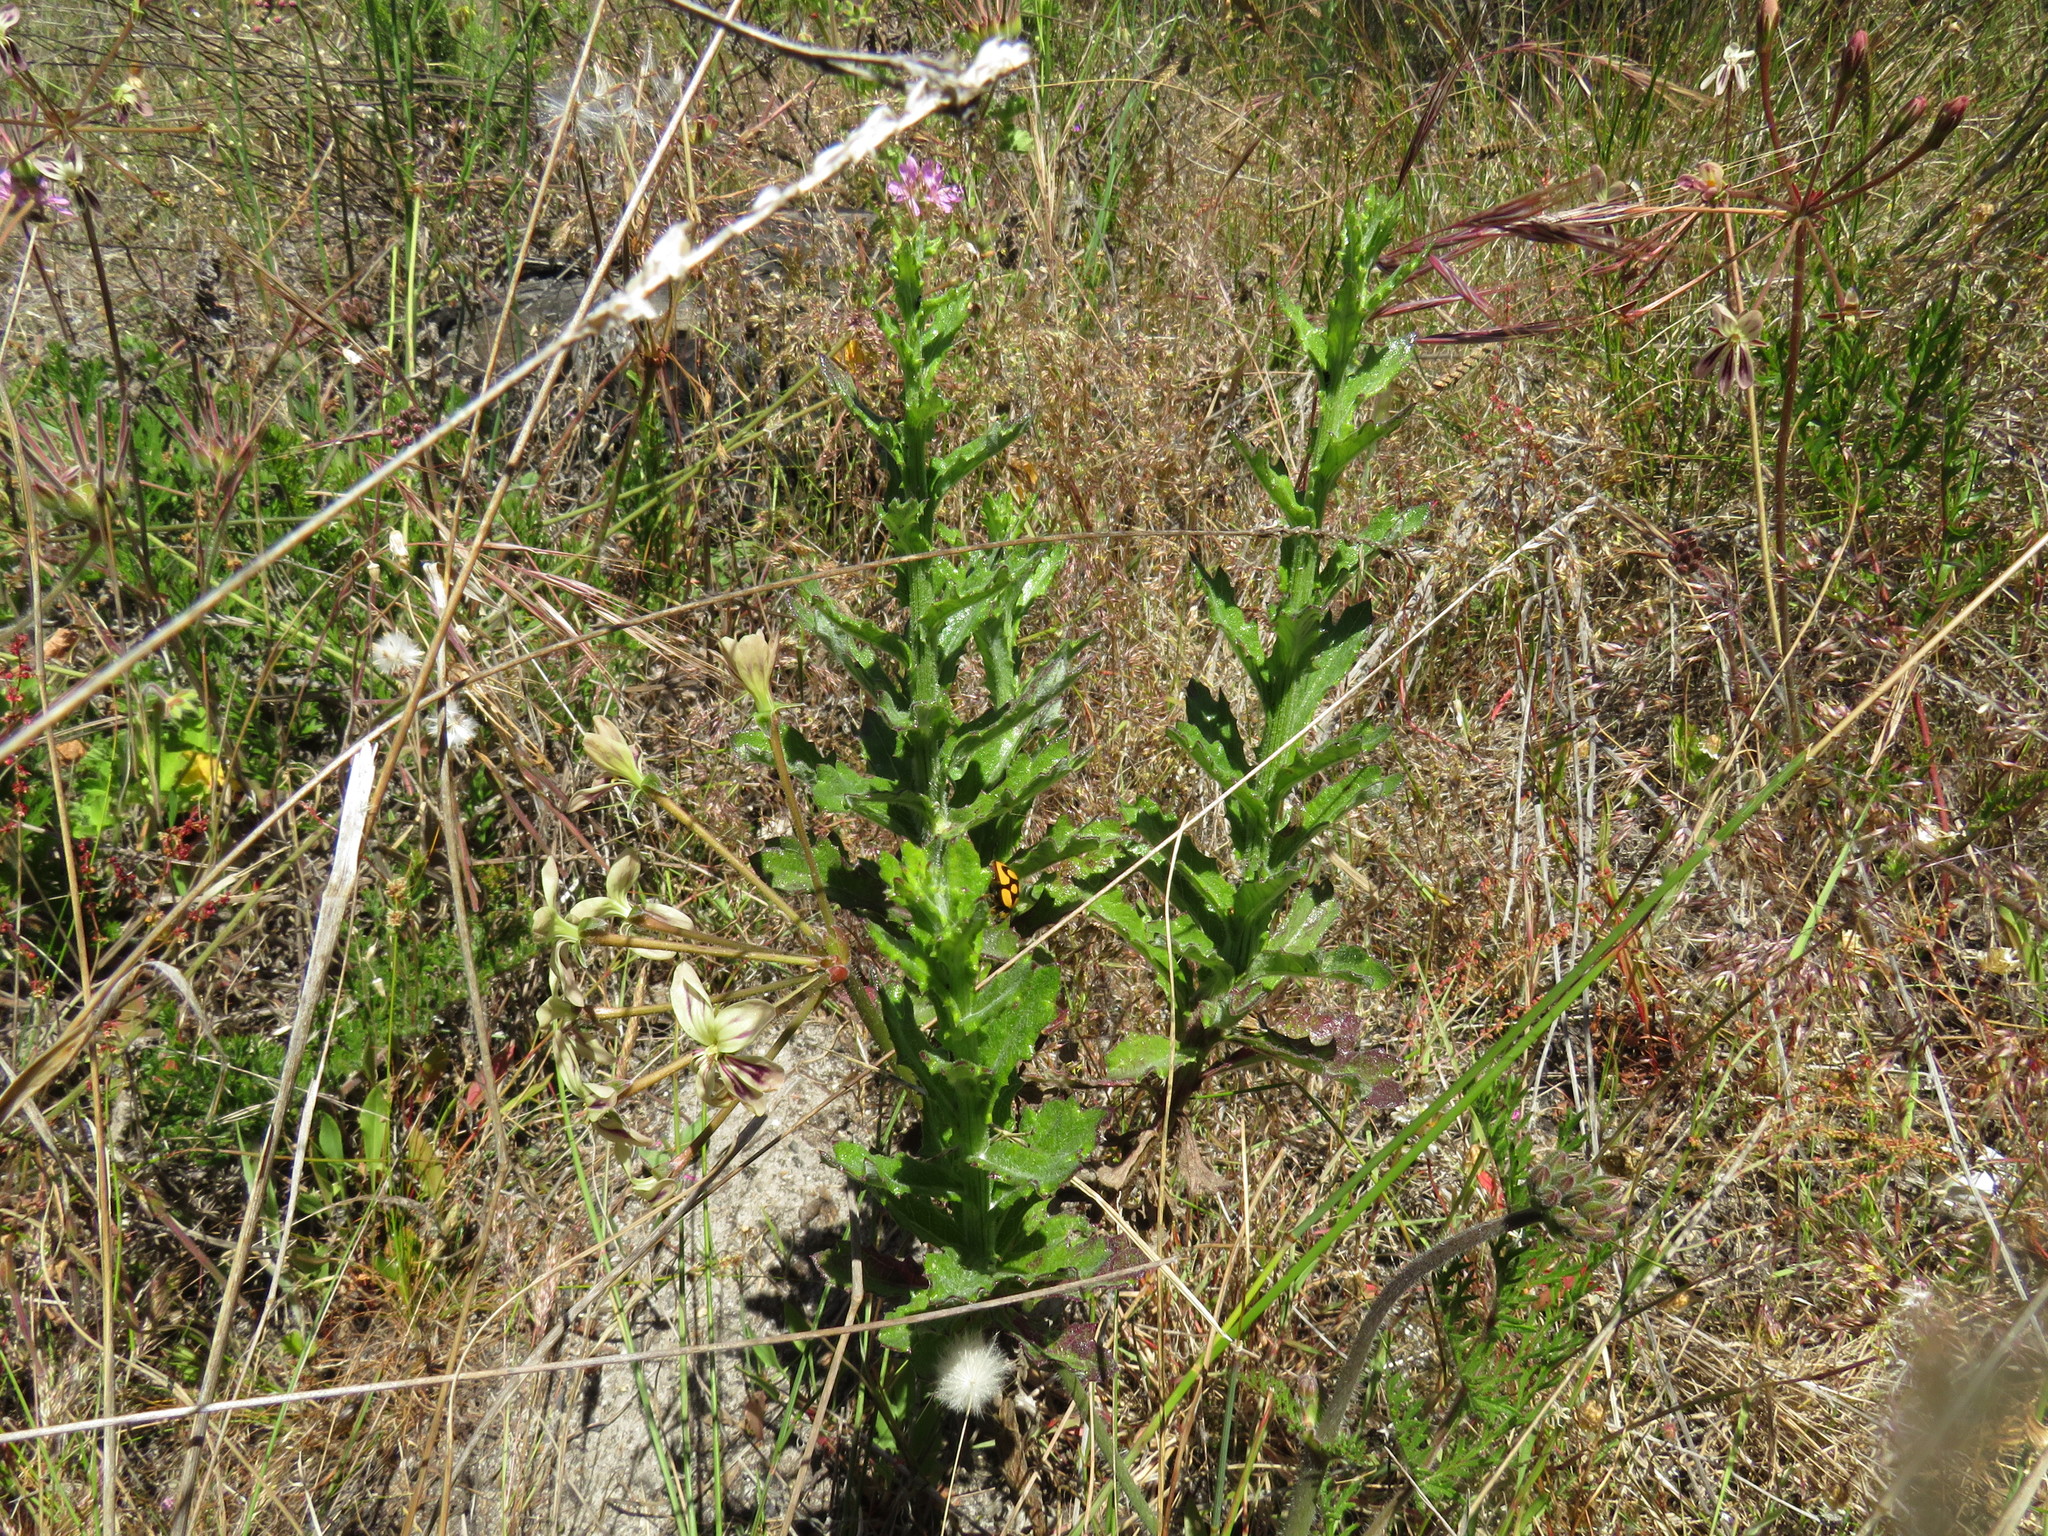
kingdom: Plantae
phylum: Tracheophyta
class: Magnoliopsida
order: Asterales
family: Asteraceae
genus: Senecio
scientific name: Senecio pubigerus
